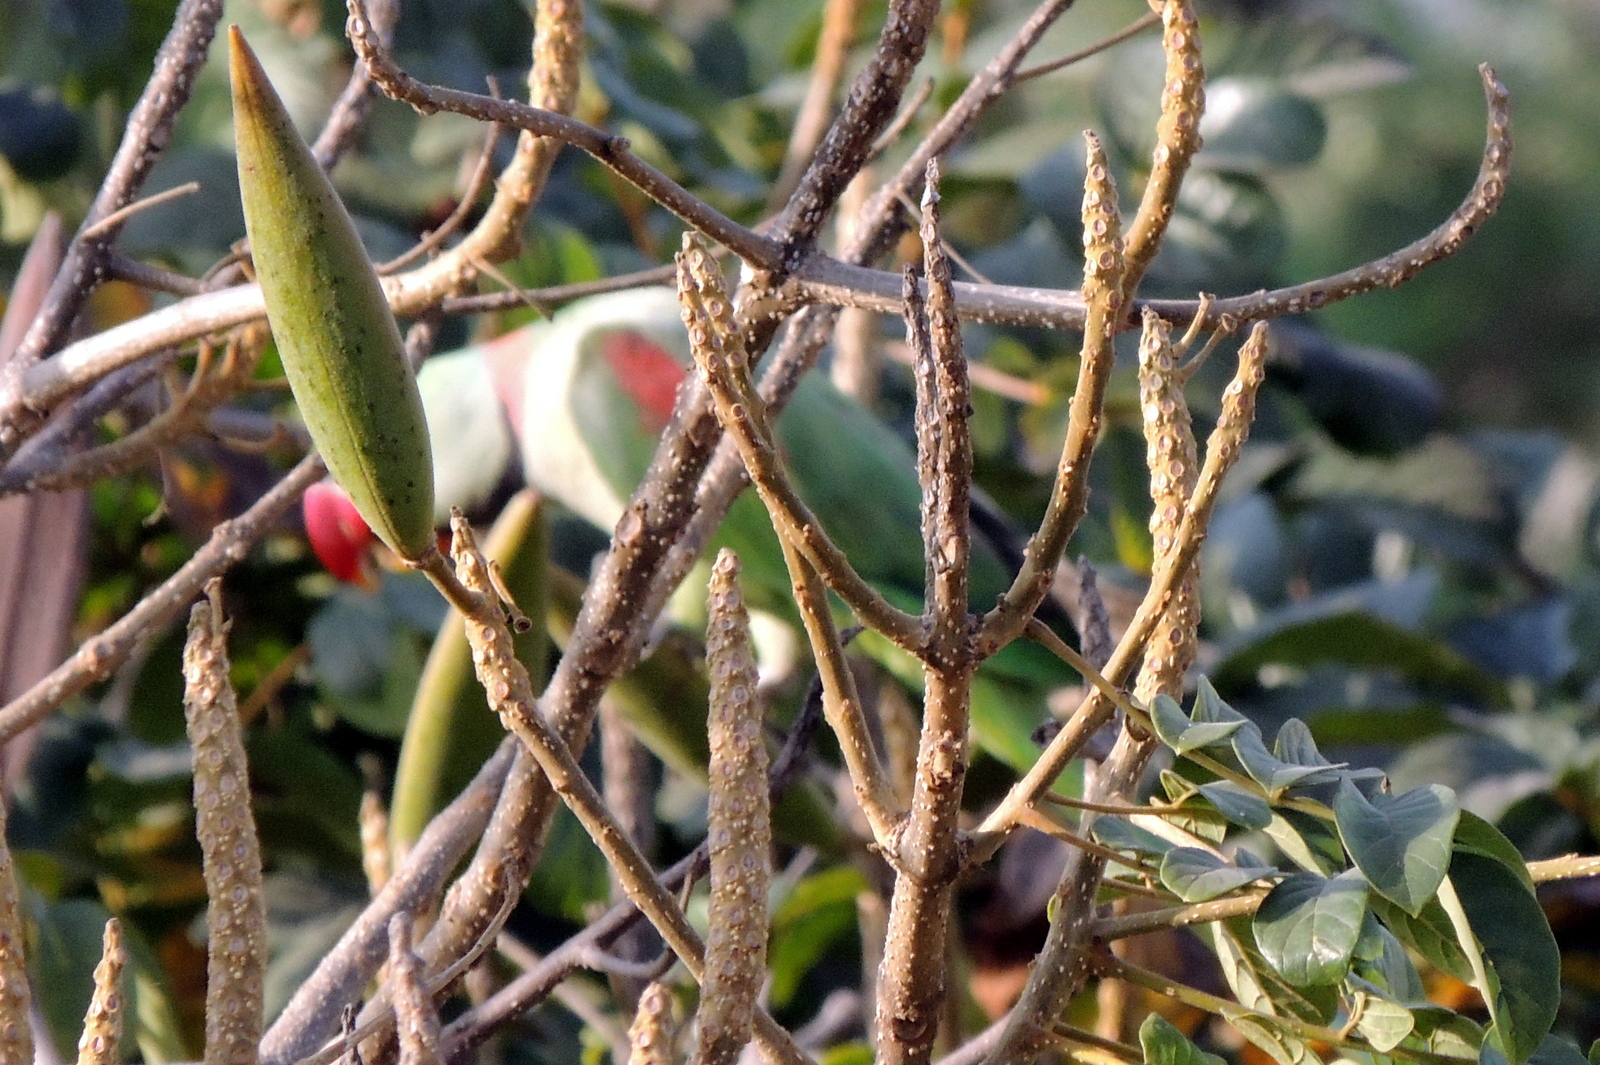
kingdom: Animalia
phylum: Chordata
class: Aves
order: Psittaciformes
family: Psittacidae
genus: Psittacula
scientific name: Psittacula eupatria
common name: Alexandrine parakeet
